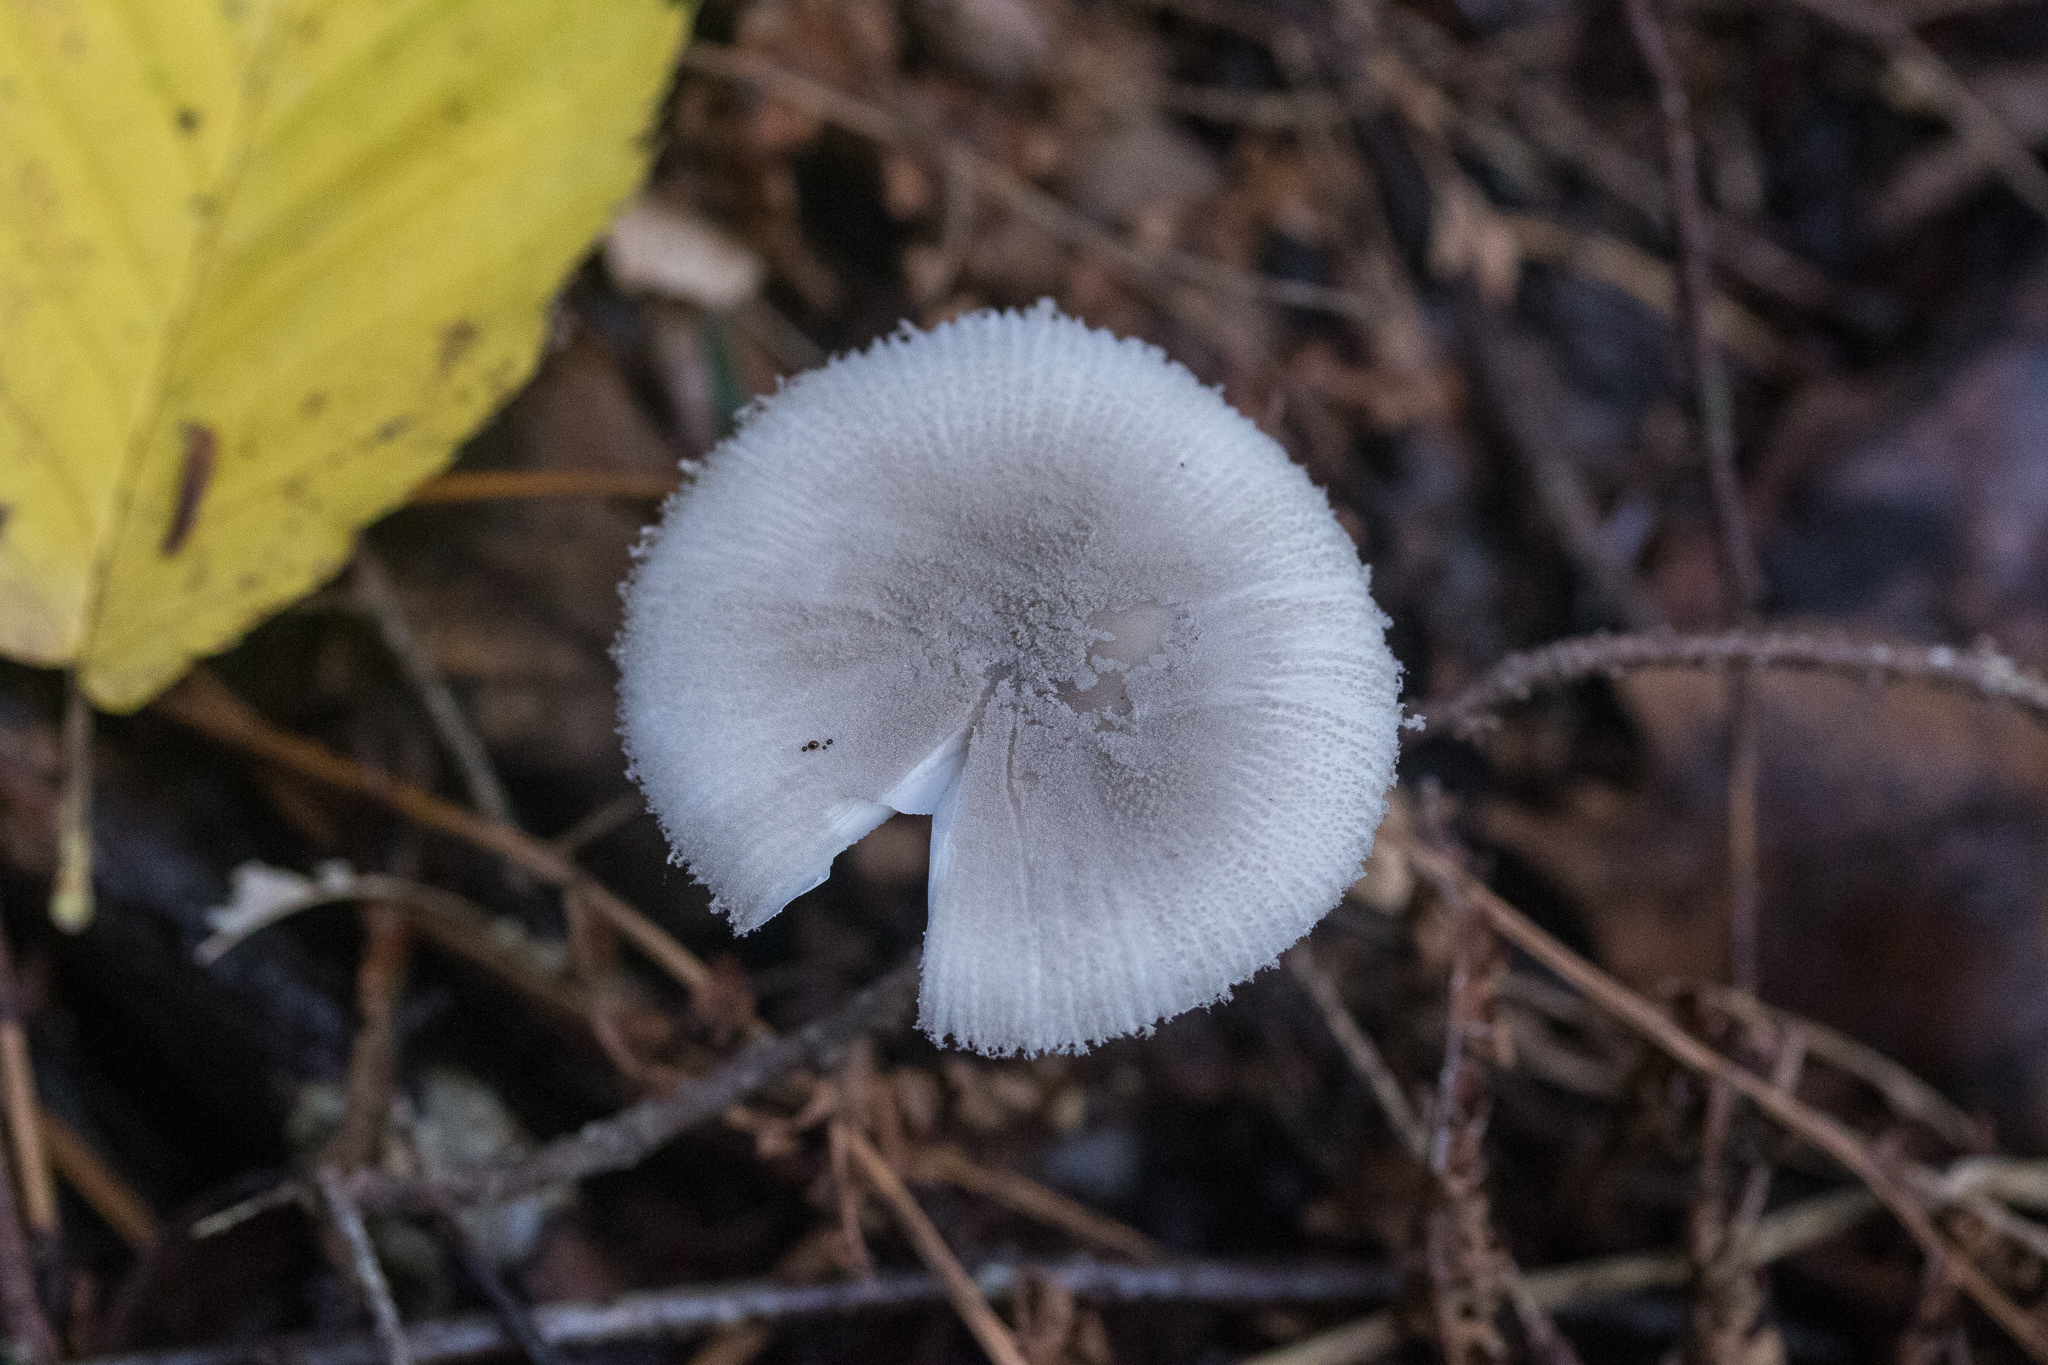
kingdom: Fungi
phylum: Basidiomycota
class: Agaricomycetes
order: Agaricales
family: Amanitaceae
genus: Amanita
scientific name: Amanita farinosa
